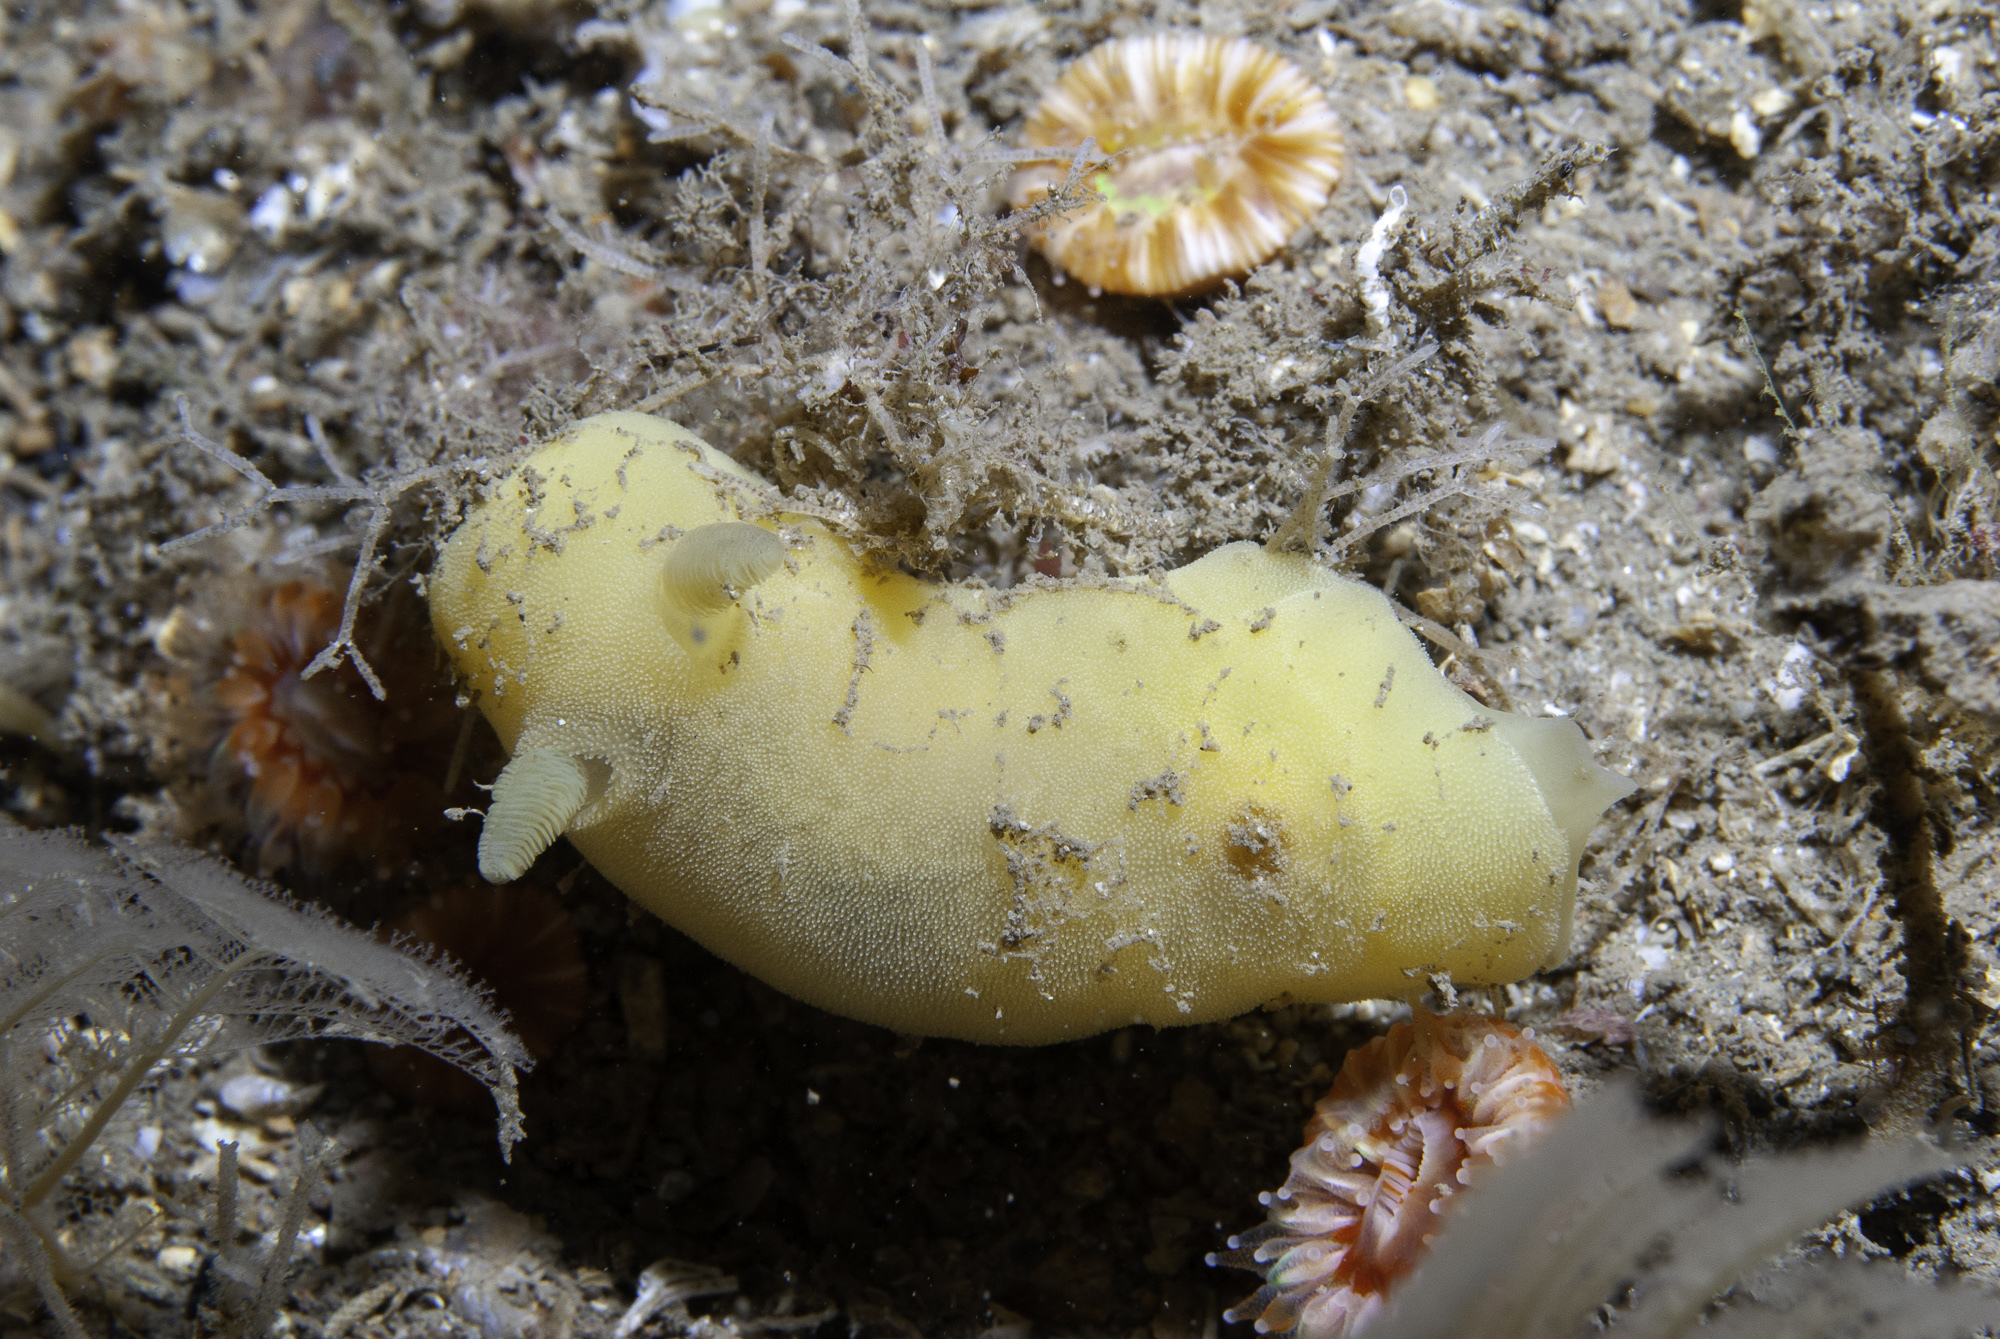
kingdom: Animalia
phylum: Mollusca
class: Gastropoda
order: Nudibranchia
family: Discodorididae
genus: Jorunna
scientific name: Jorunna artsdatabankia
